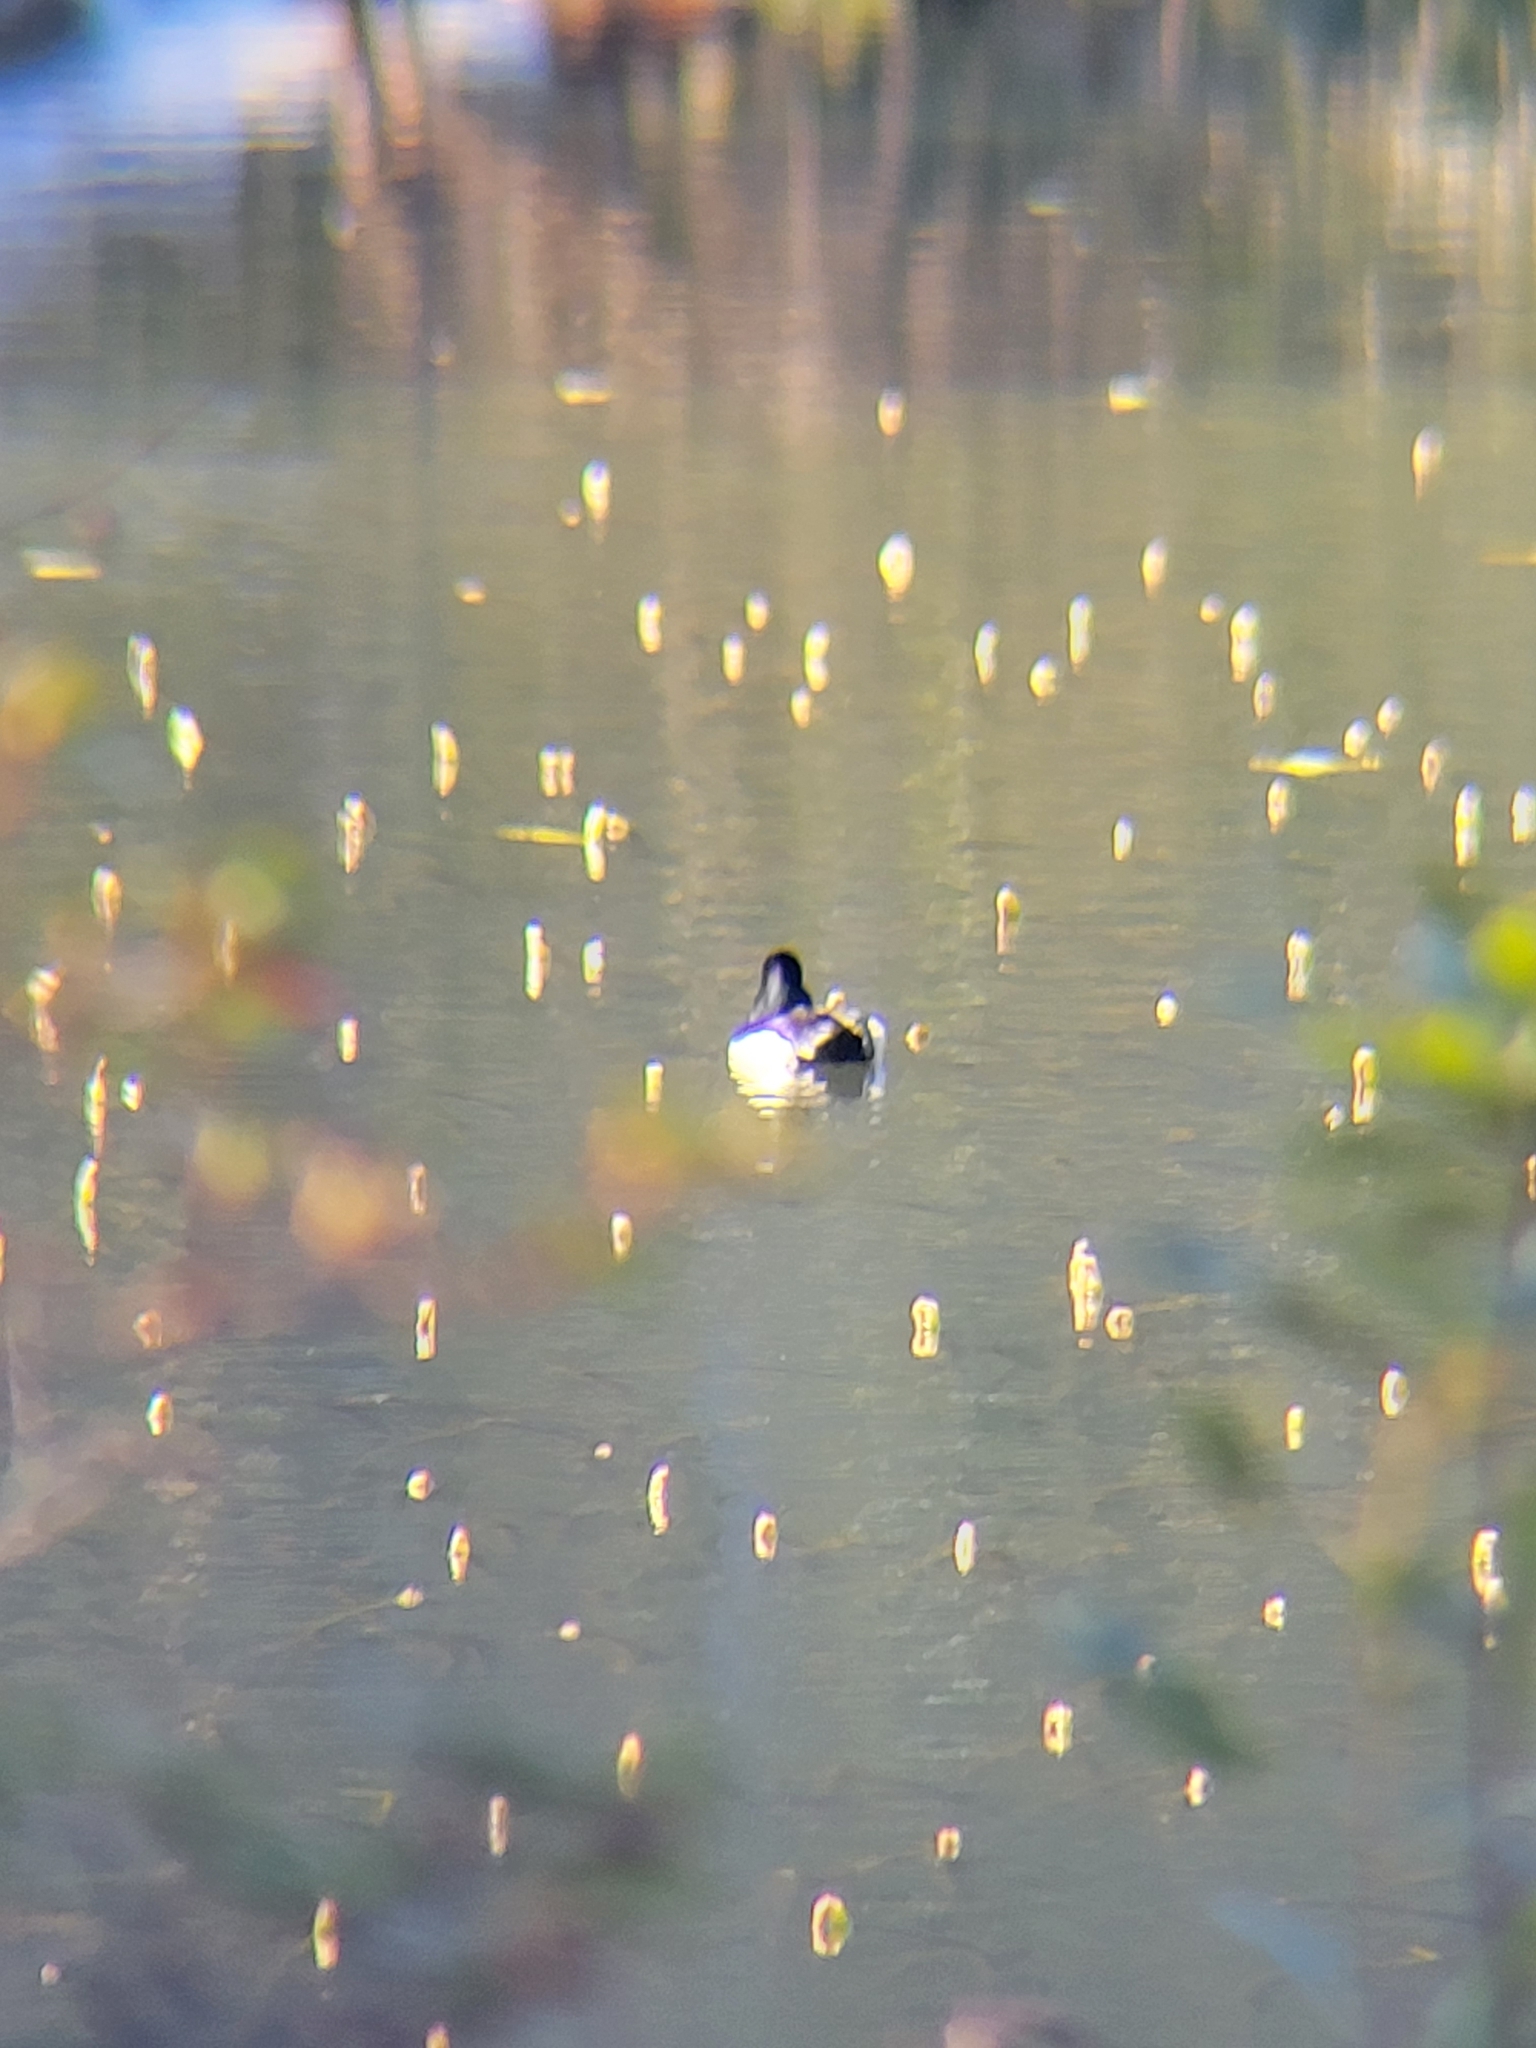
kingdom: Animalia
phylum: Chordata
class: Aves
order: Anseriformes
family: Anatidae
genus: Aythya
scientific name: Aythya collaris
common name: Ring-necked duck
